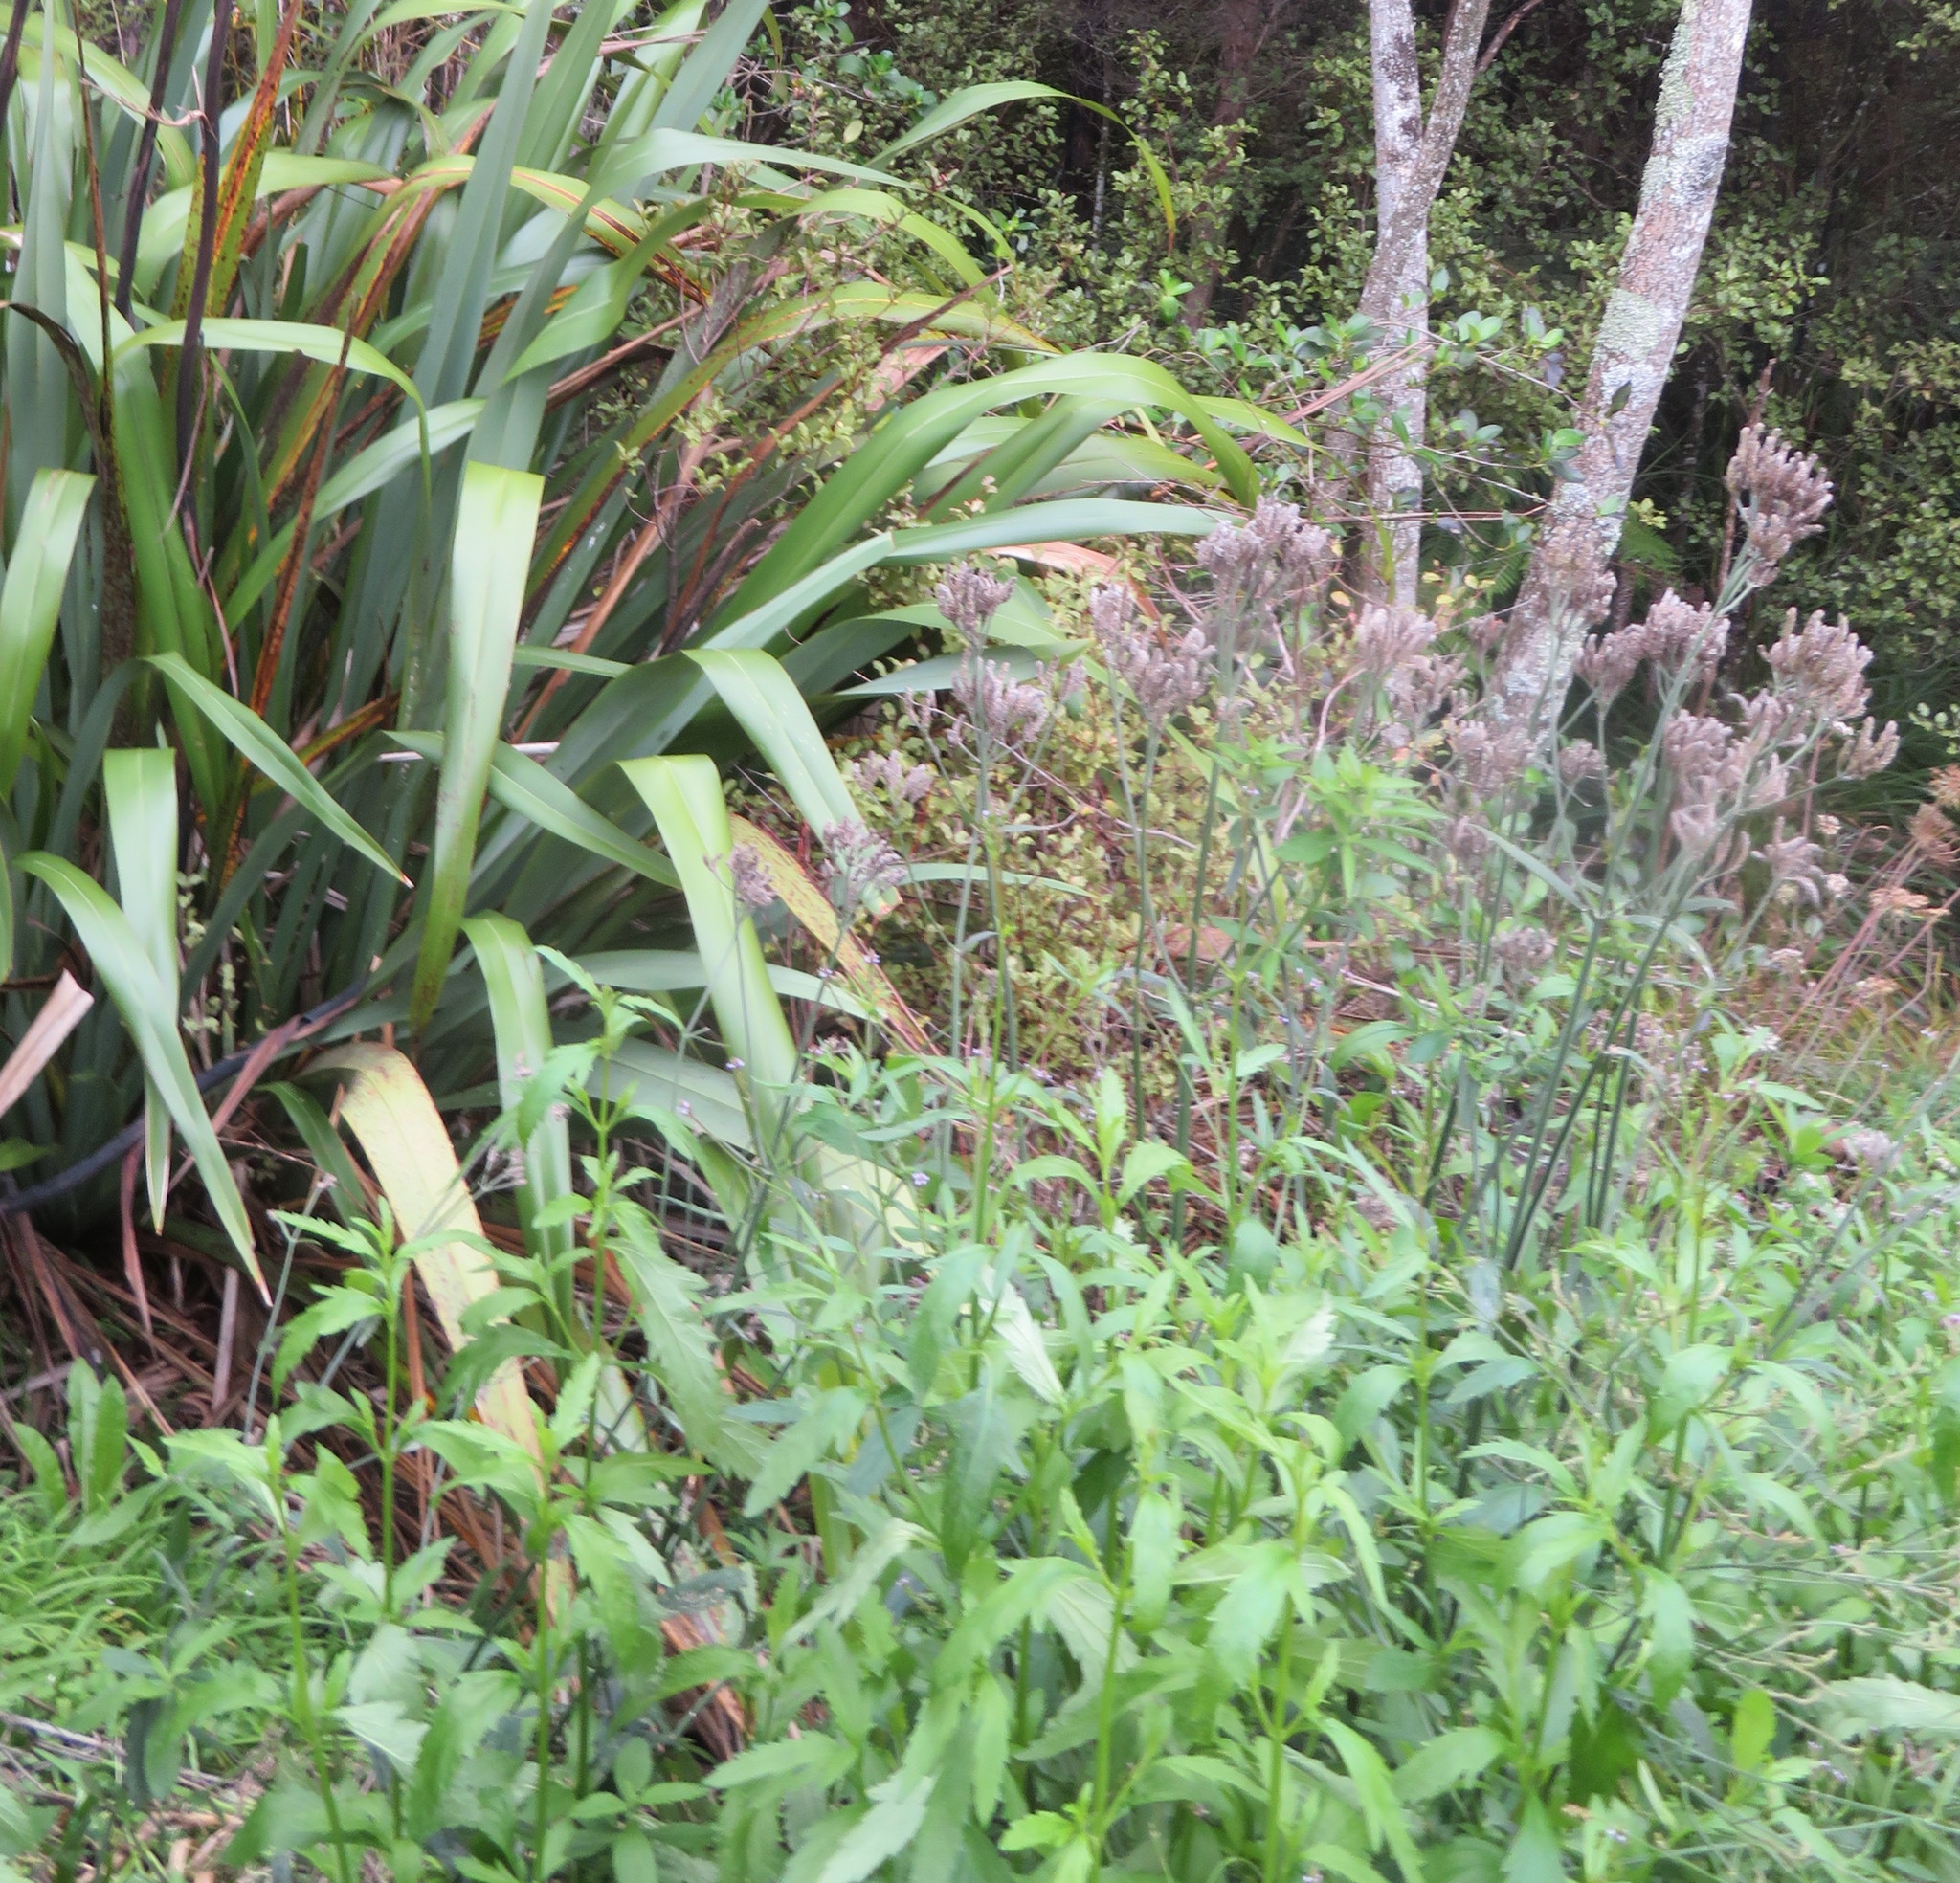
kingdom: Plantae
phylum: Tracheophyta
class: Magnoliopsida
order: Lamiales
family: Verbenaceae
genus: Verbena
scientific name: Verbena incompta
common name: Purpletop vervain
